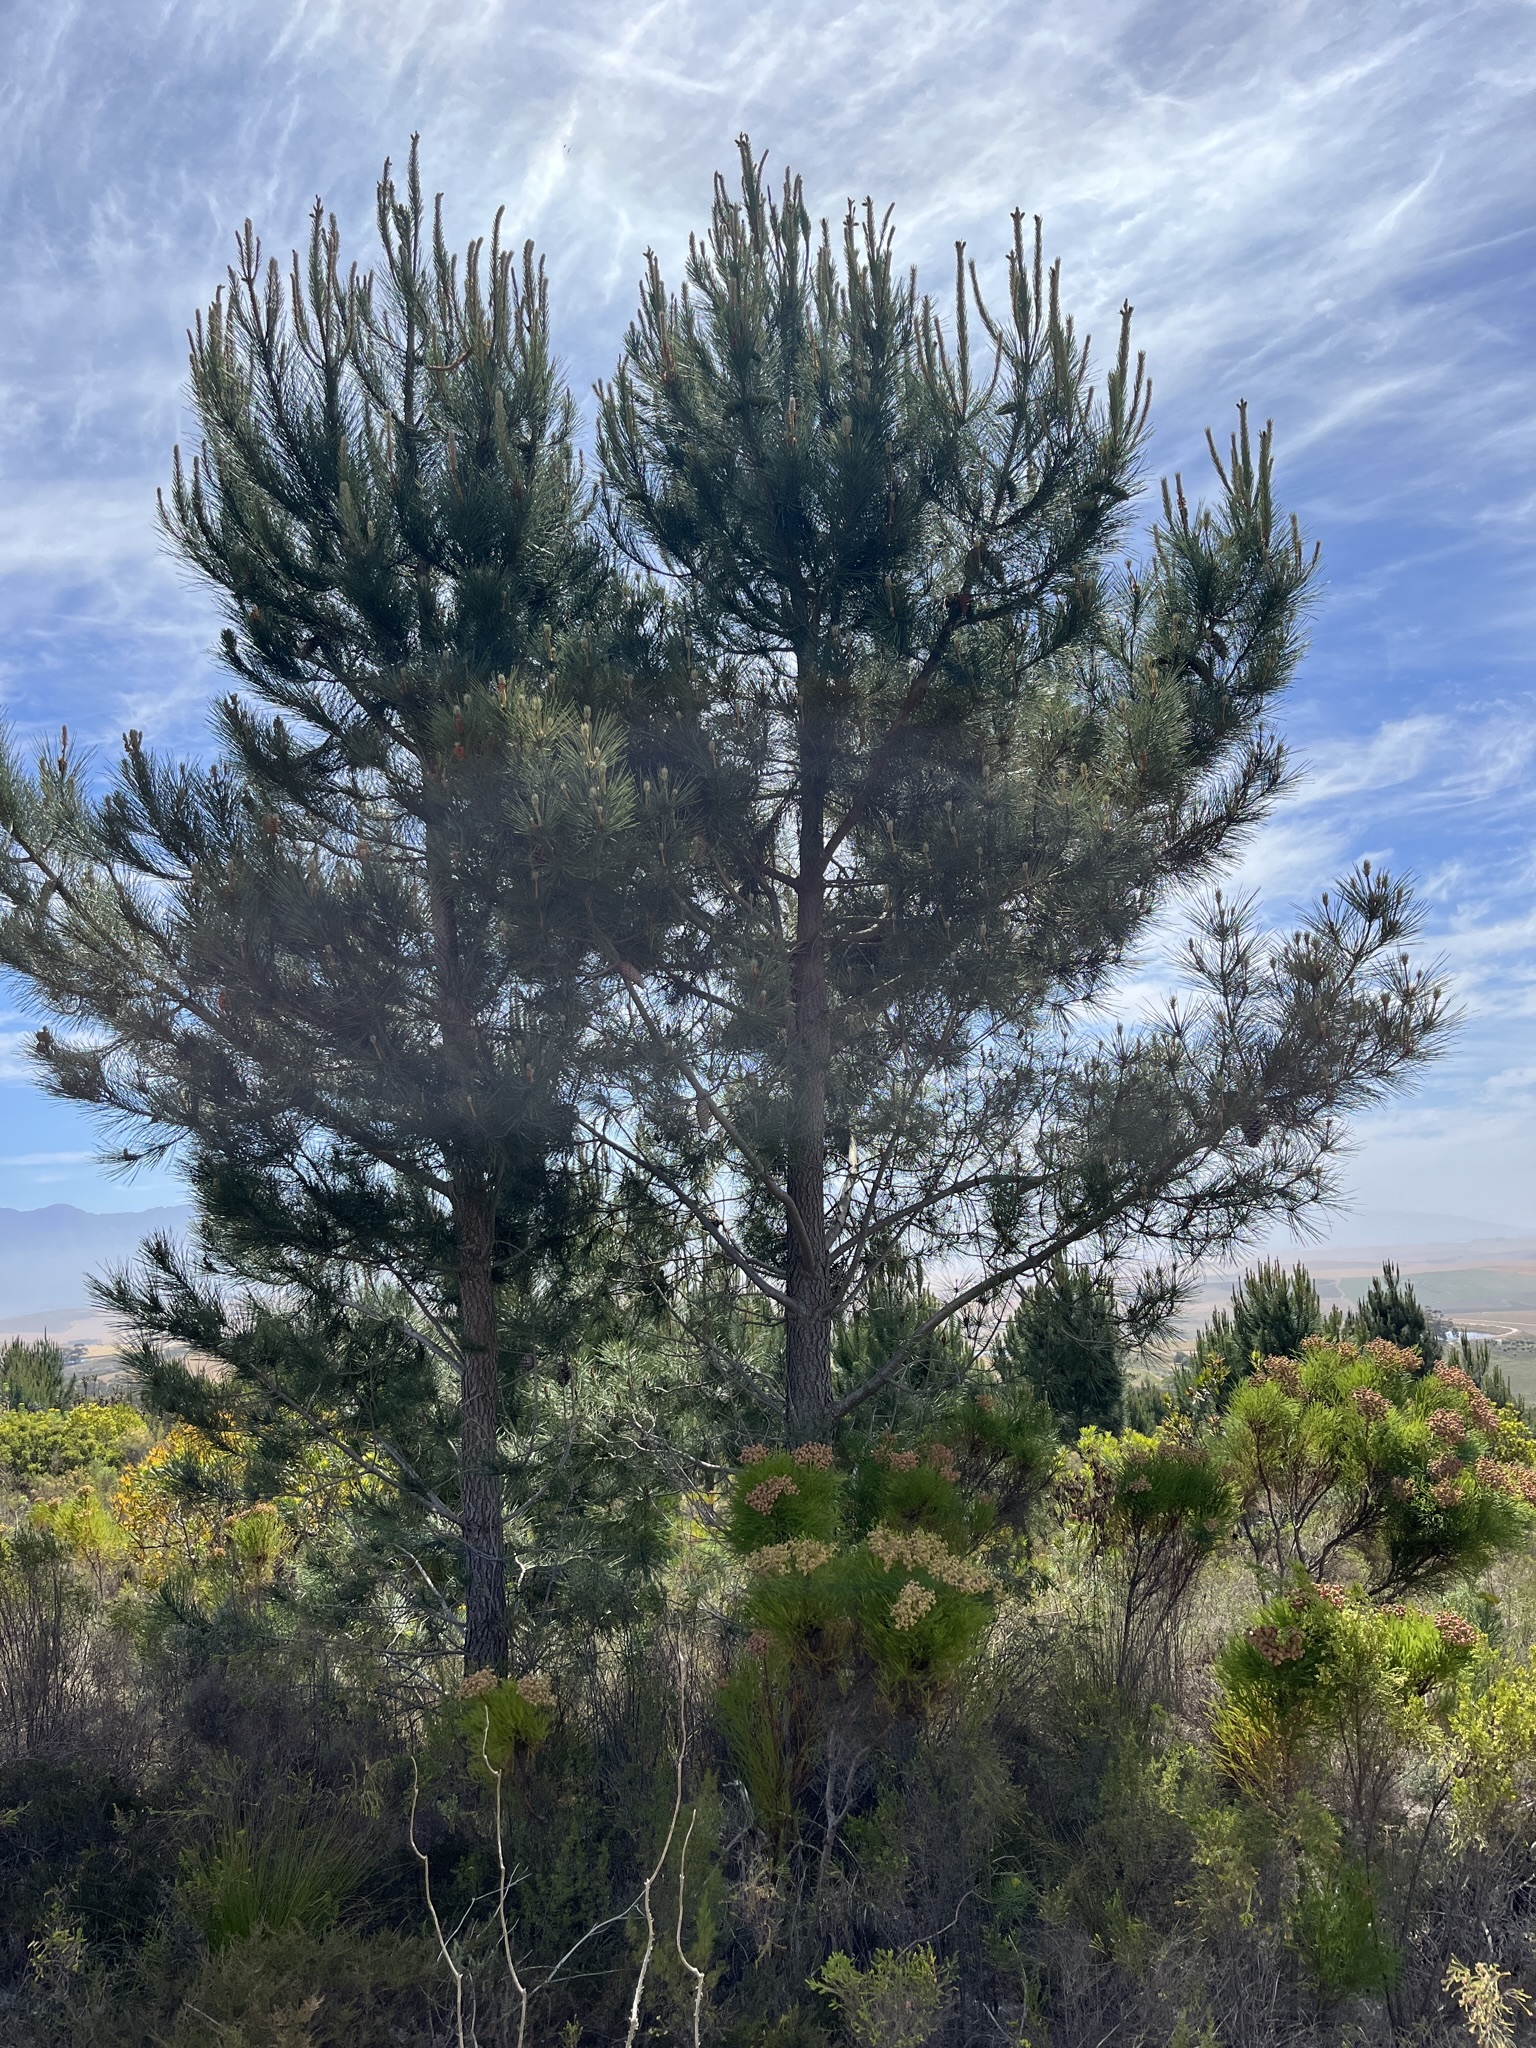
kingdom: Plantae
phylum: Tracheophyta
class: Pinopsida
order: Pinales
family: Pinaceae
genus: Pinus
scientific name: Pinus pinaster
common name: Maritime pine
